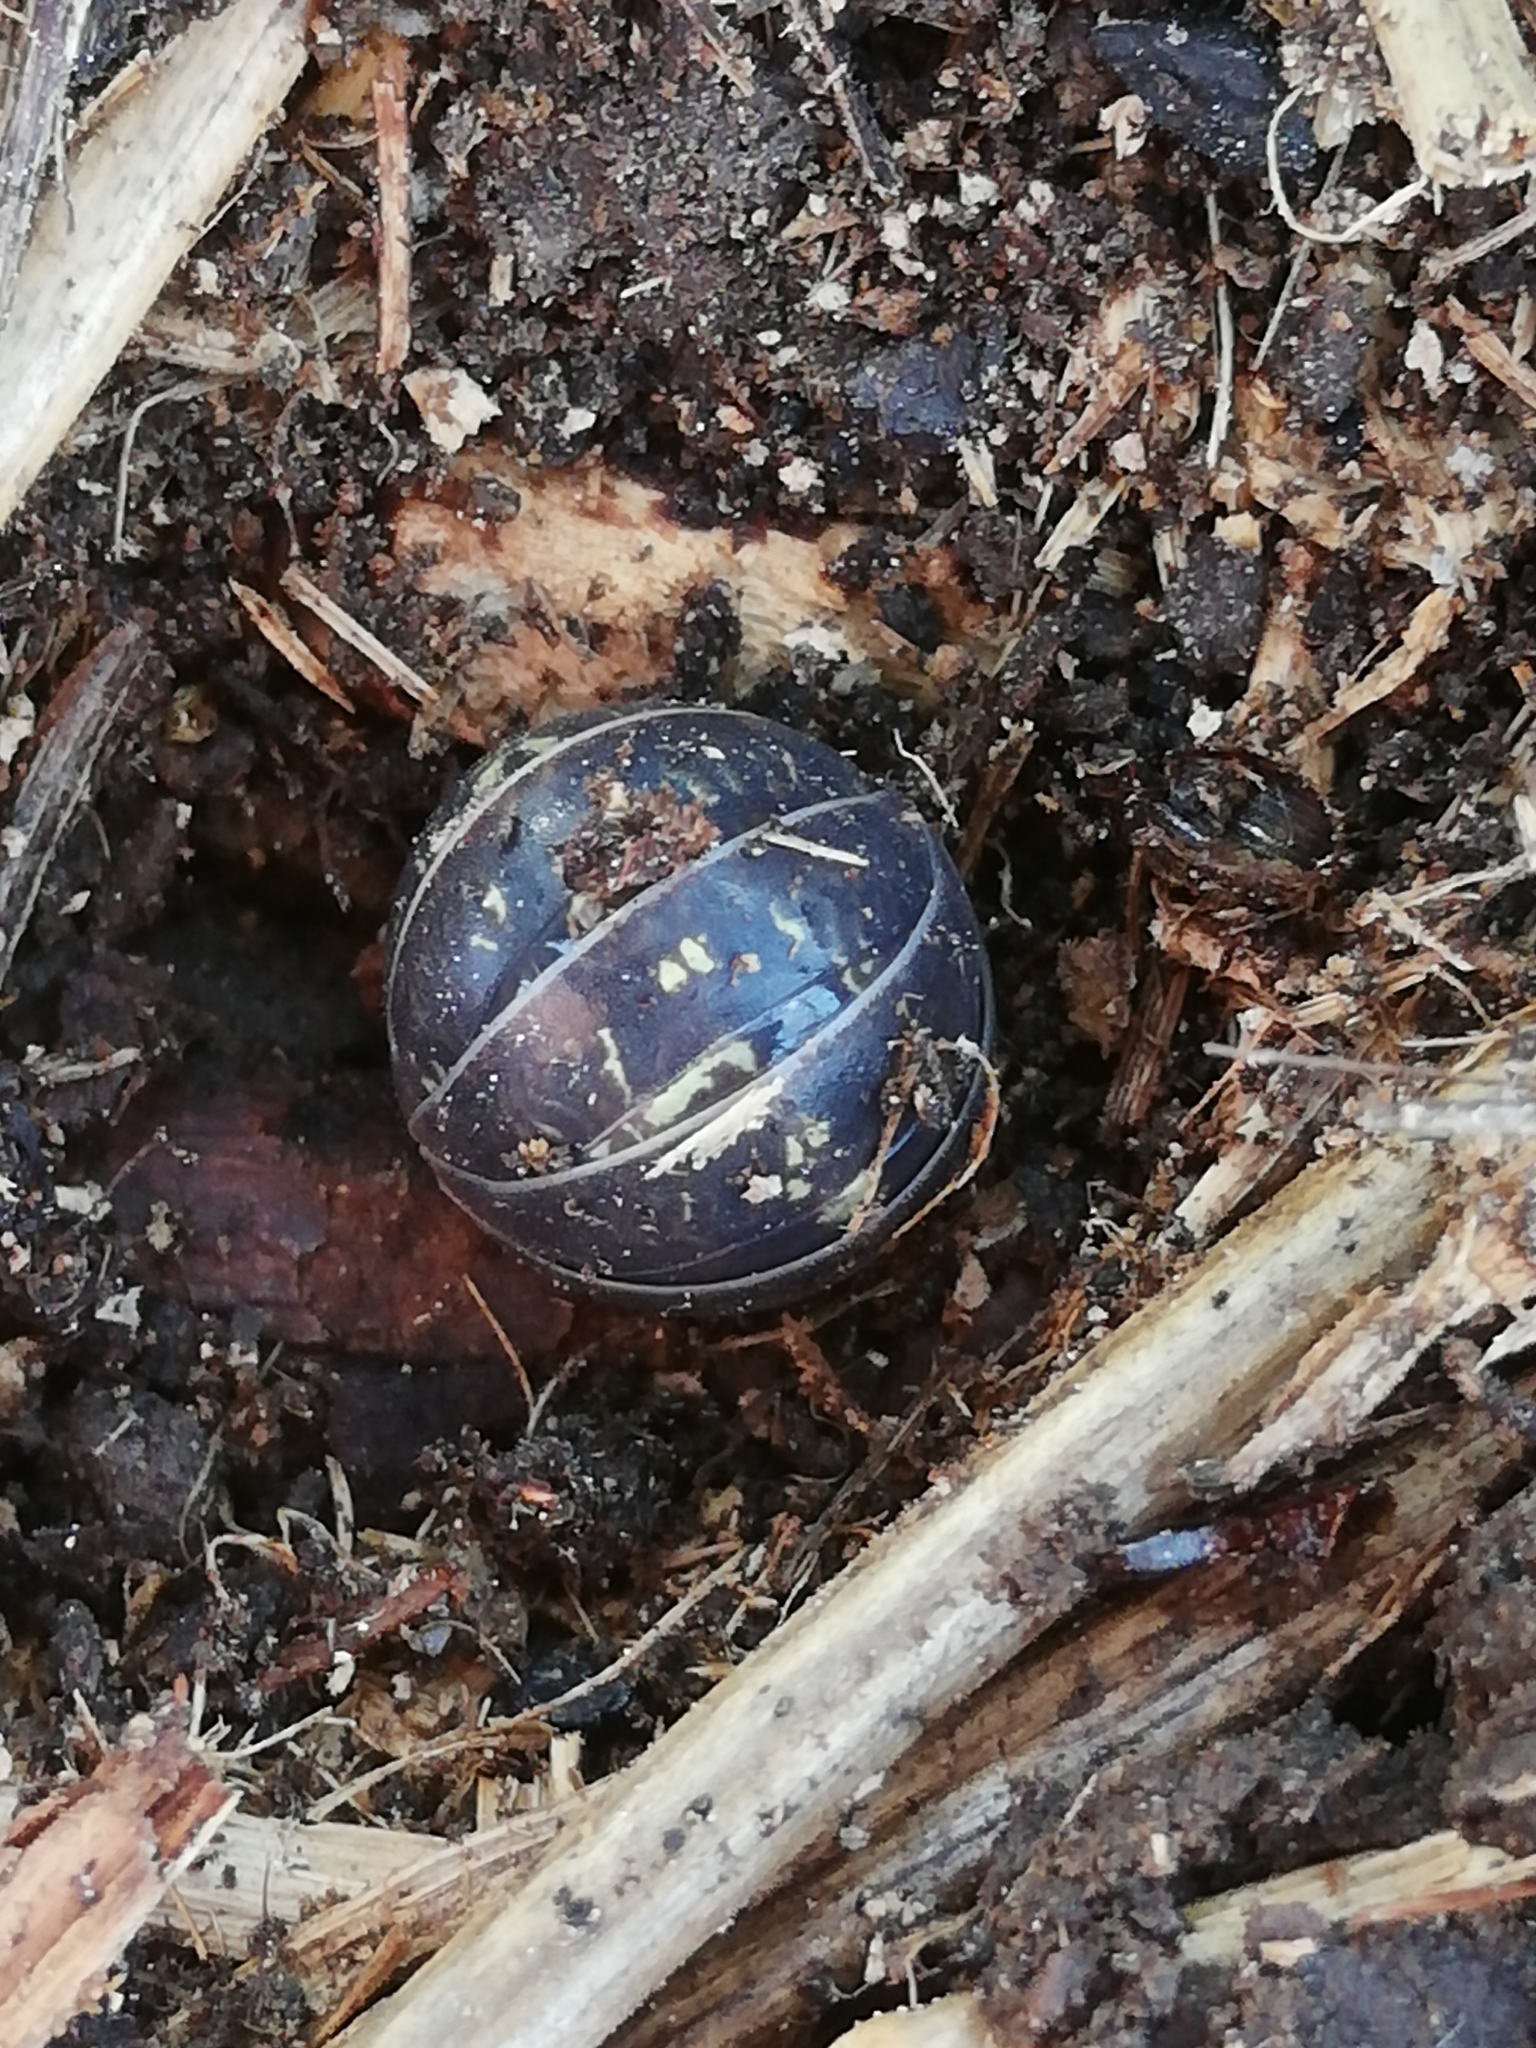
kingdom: Animalia
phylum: Arthropoda
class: Malacostraca
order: Isopoda
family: Armadillidiidae
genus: Armadillidium
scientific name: Armadillidium vulgare
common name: Common pill woodlouse
